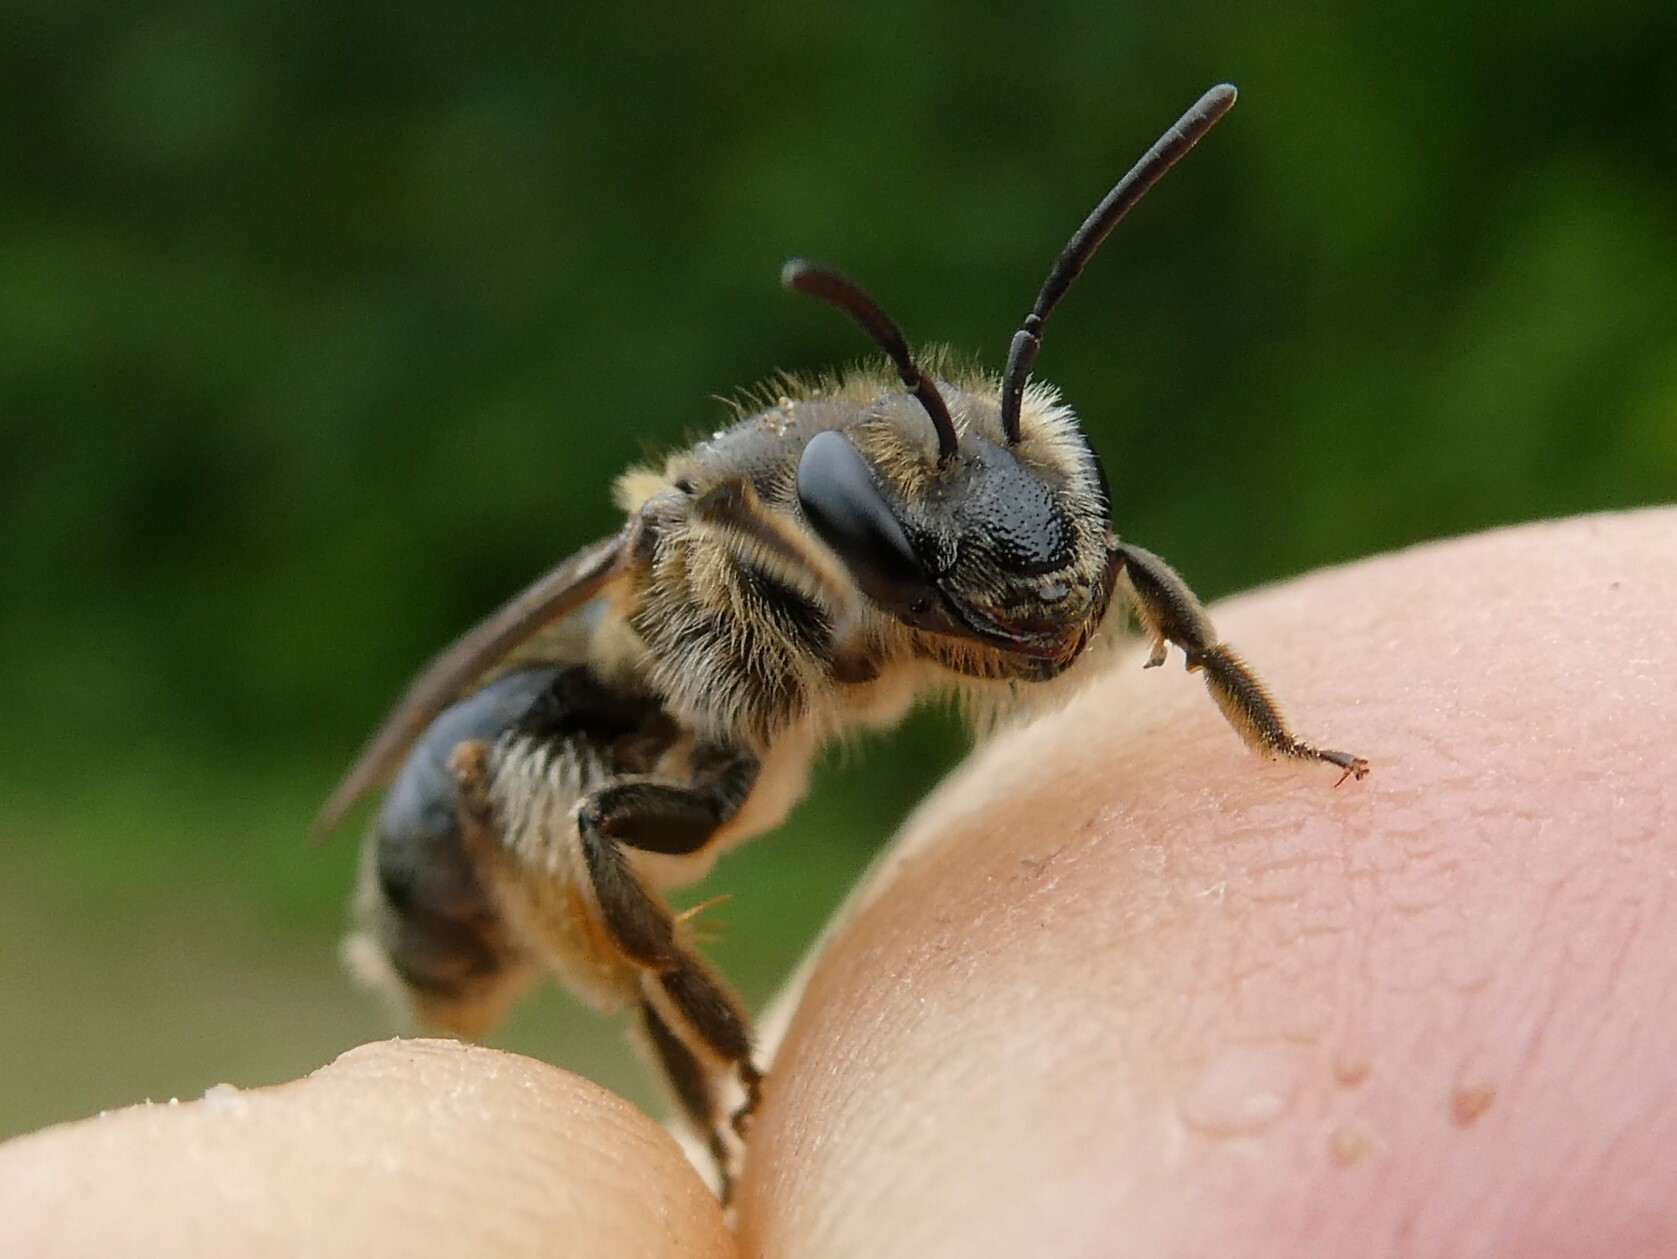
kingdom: Animalia
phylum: Arthropoda
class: Insecta
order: Hymenoptera
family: Andrenidae
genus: Andrena
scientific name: Andrena crataegi
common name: Hawthorn mining bee
